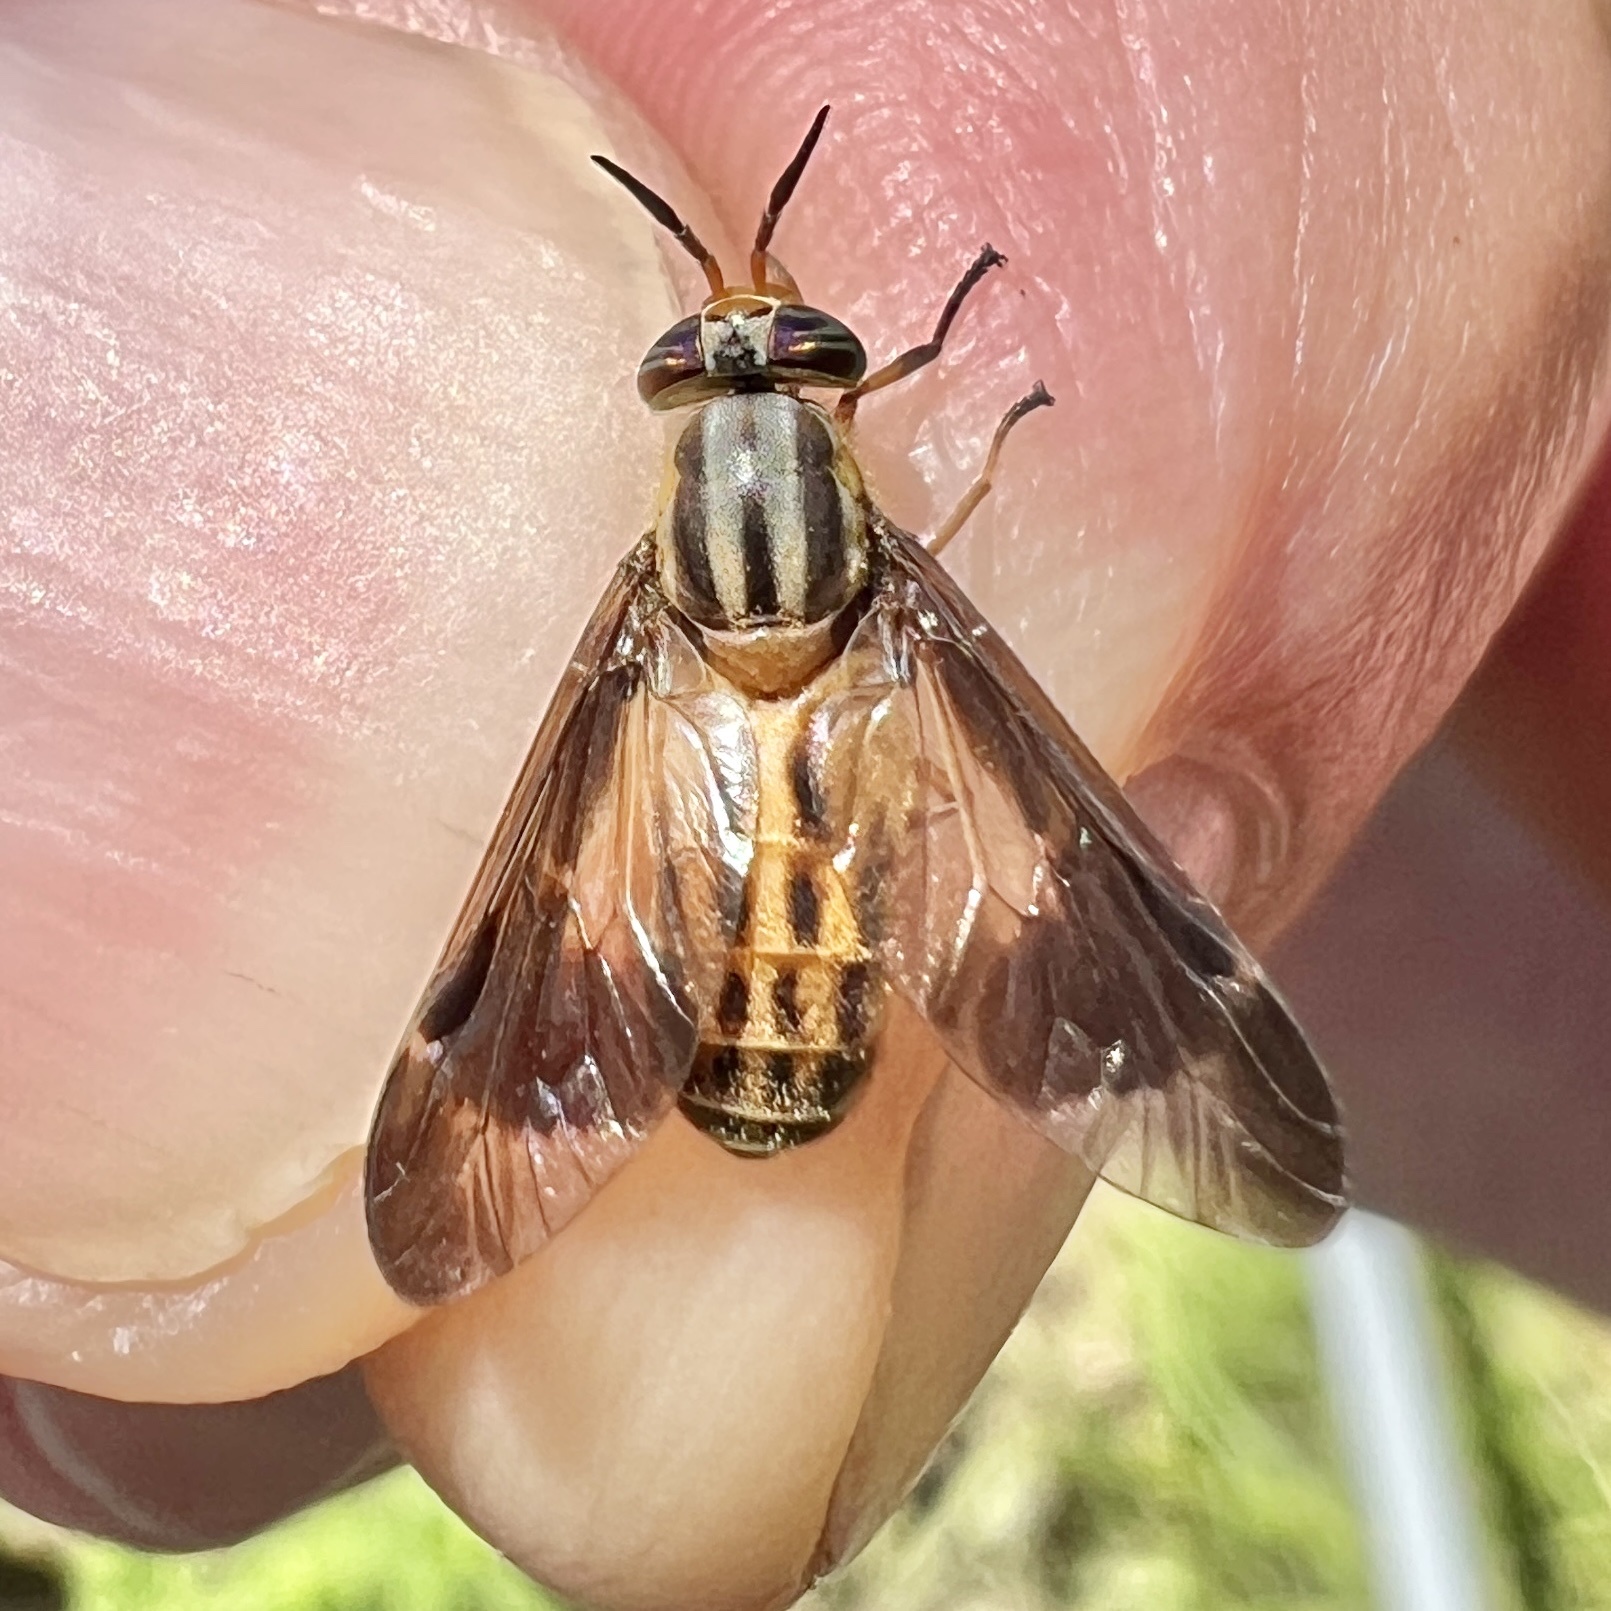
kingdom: Animalia
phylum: Arthropoda
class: Insecta
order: Diptera
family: Tabanidae
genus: Chrysops
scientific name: Chrysops vittatus
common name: Striped deer fly
